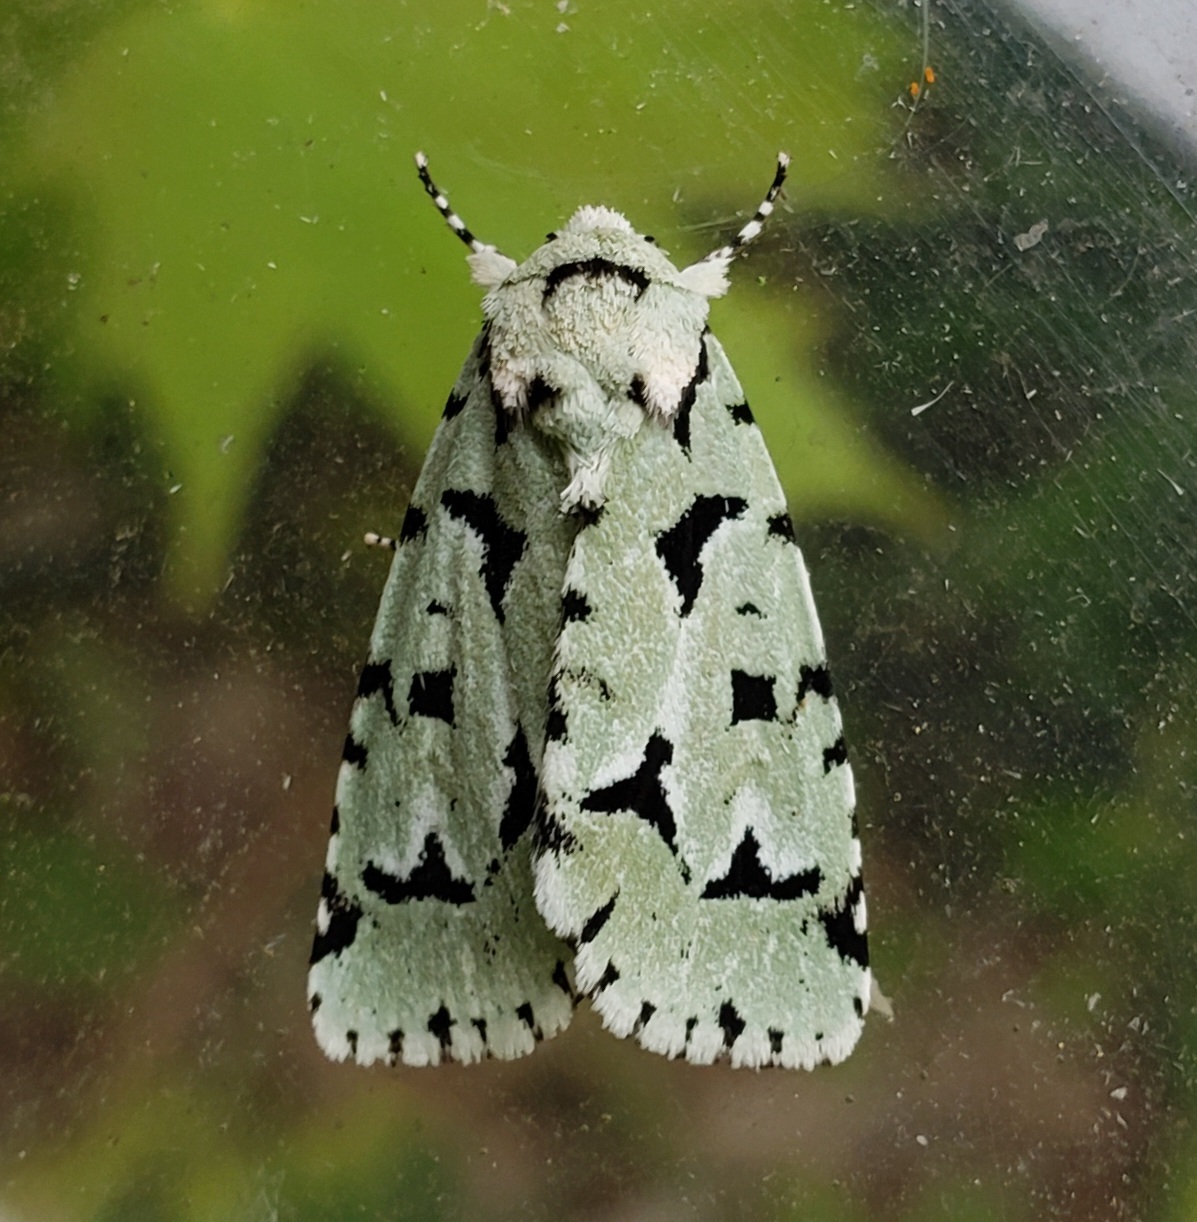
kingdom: Animalia
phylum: Arthropoda
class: Insecta
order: Lepidoptera
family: Noctuidae
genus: Acronicta
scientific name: Acronicta fallax
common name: Green marvel
